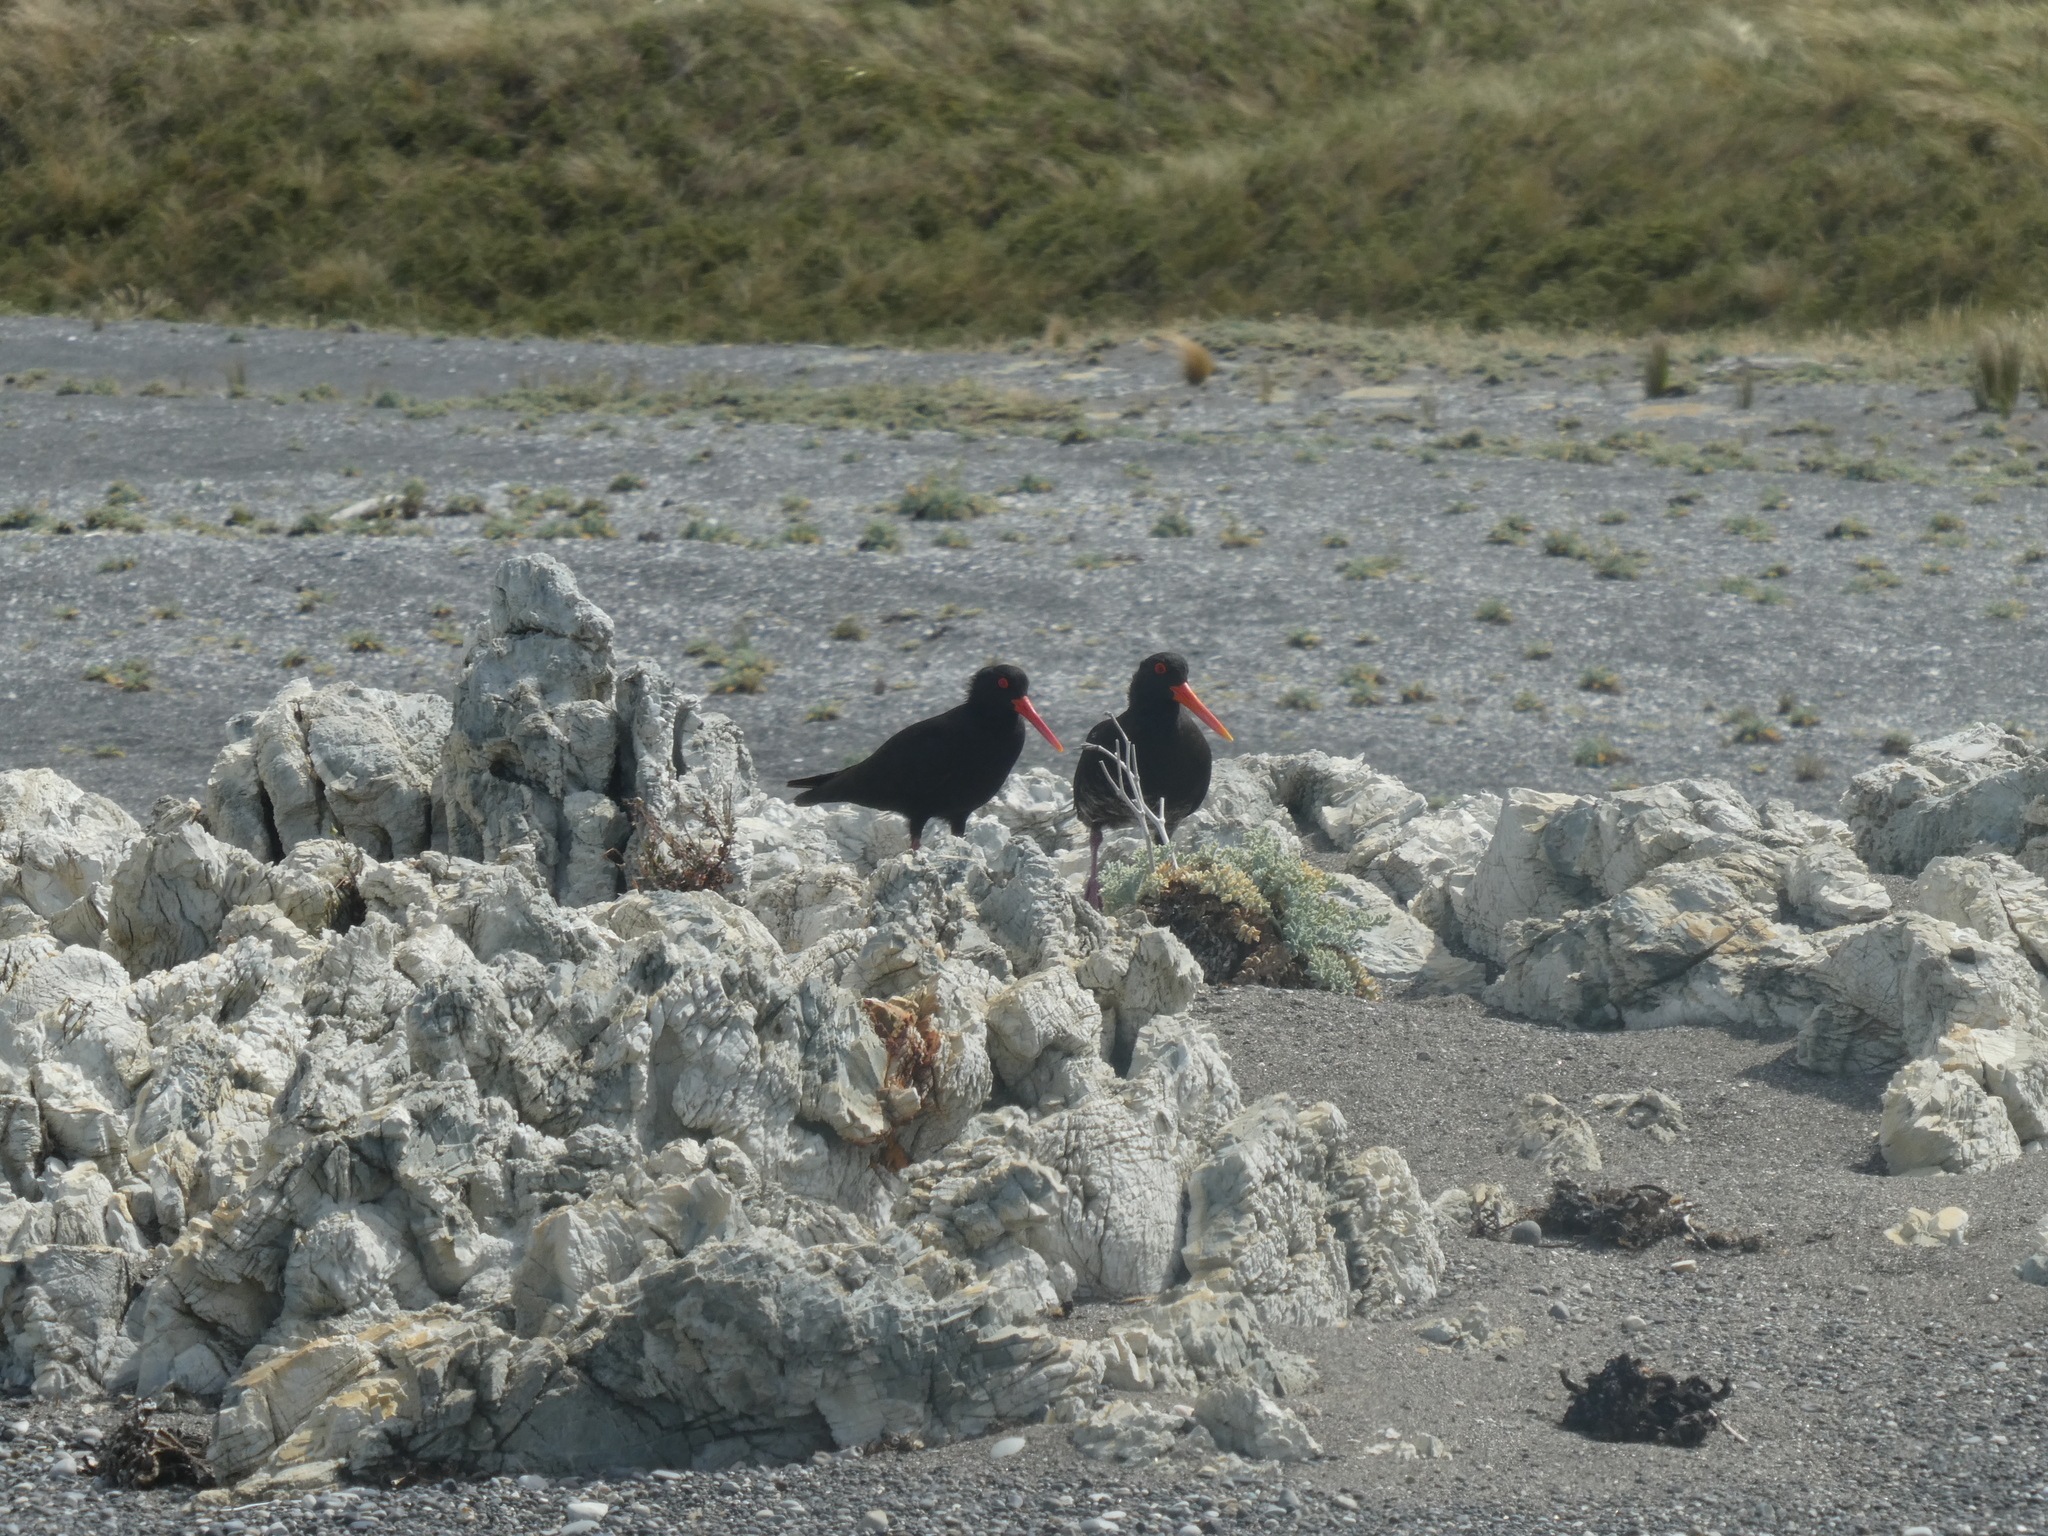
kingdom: Animalia
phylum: Chordata
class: Aves
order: Charadriiformes
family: Haematopodidae
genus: Haematopus
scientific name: Haematopus unicolor
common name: Variable oystercatcher
